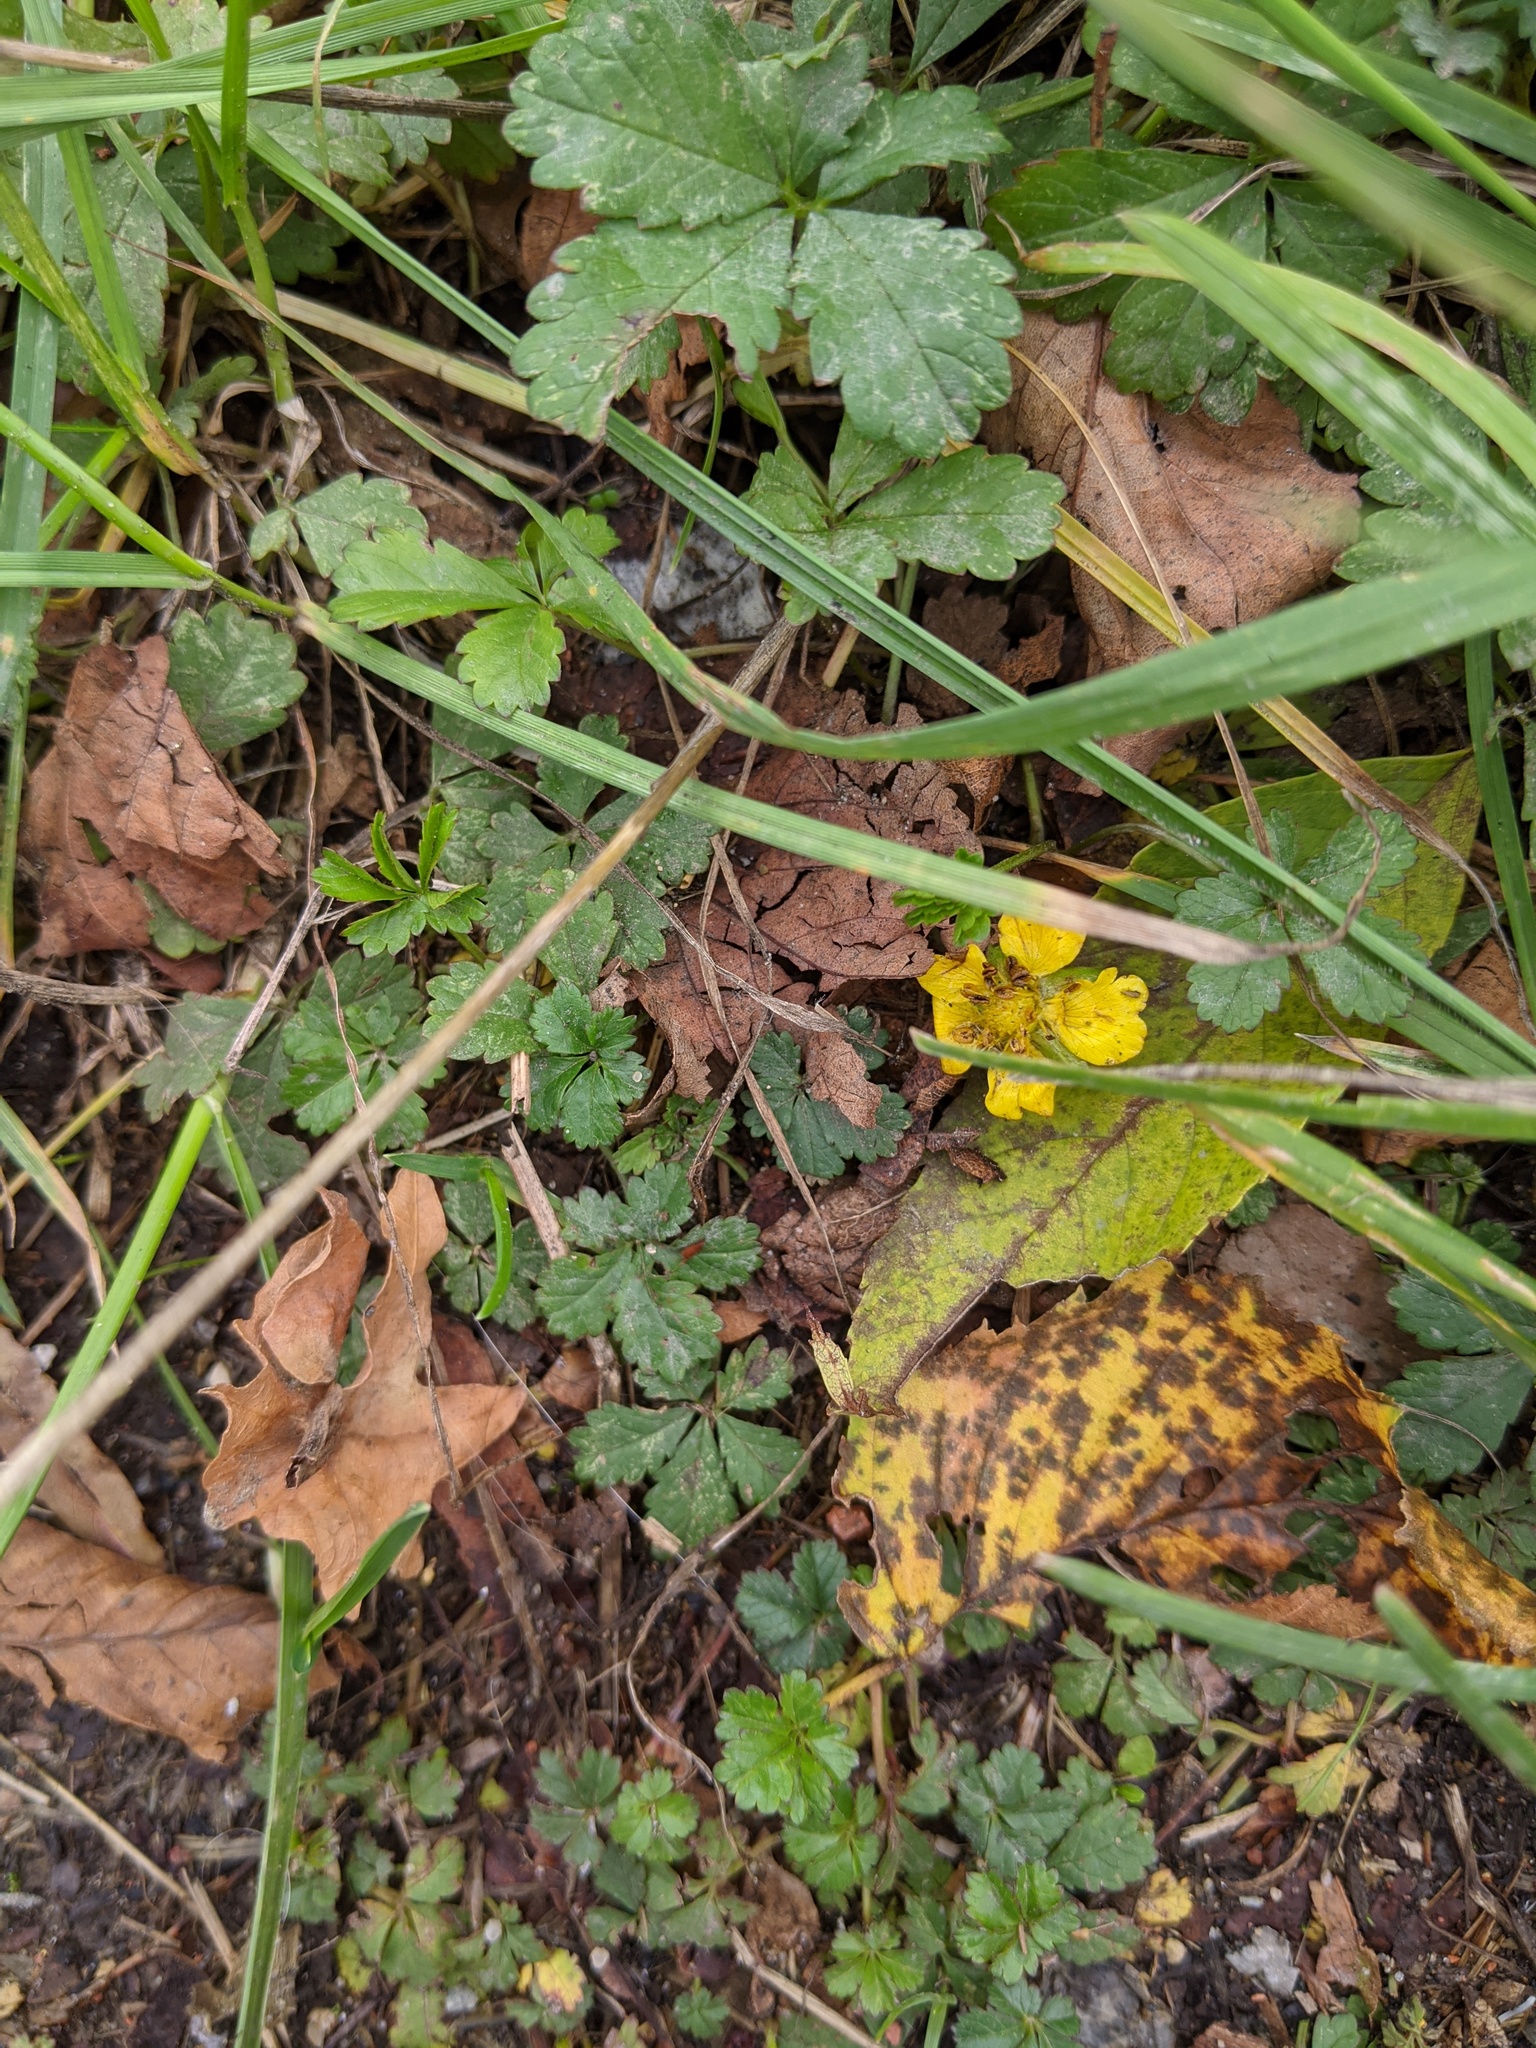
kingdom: Plantae
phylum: Tracheophyta
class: Magnoliopsida
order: Rosales
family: Rosaceae
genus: Potentilla
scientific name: Potentilla reptans
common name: Creeping cinquefoil
